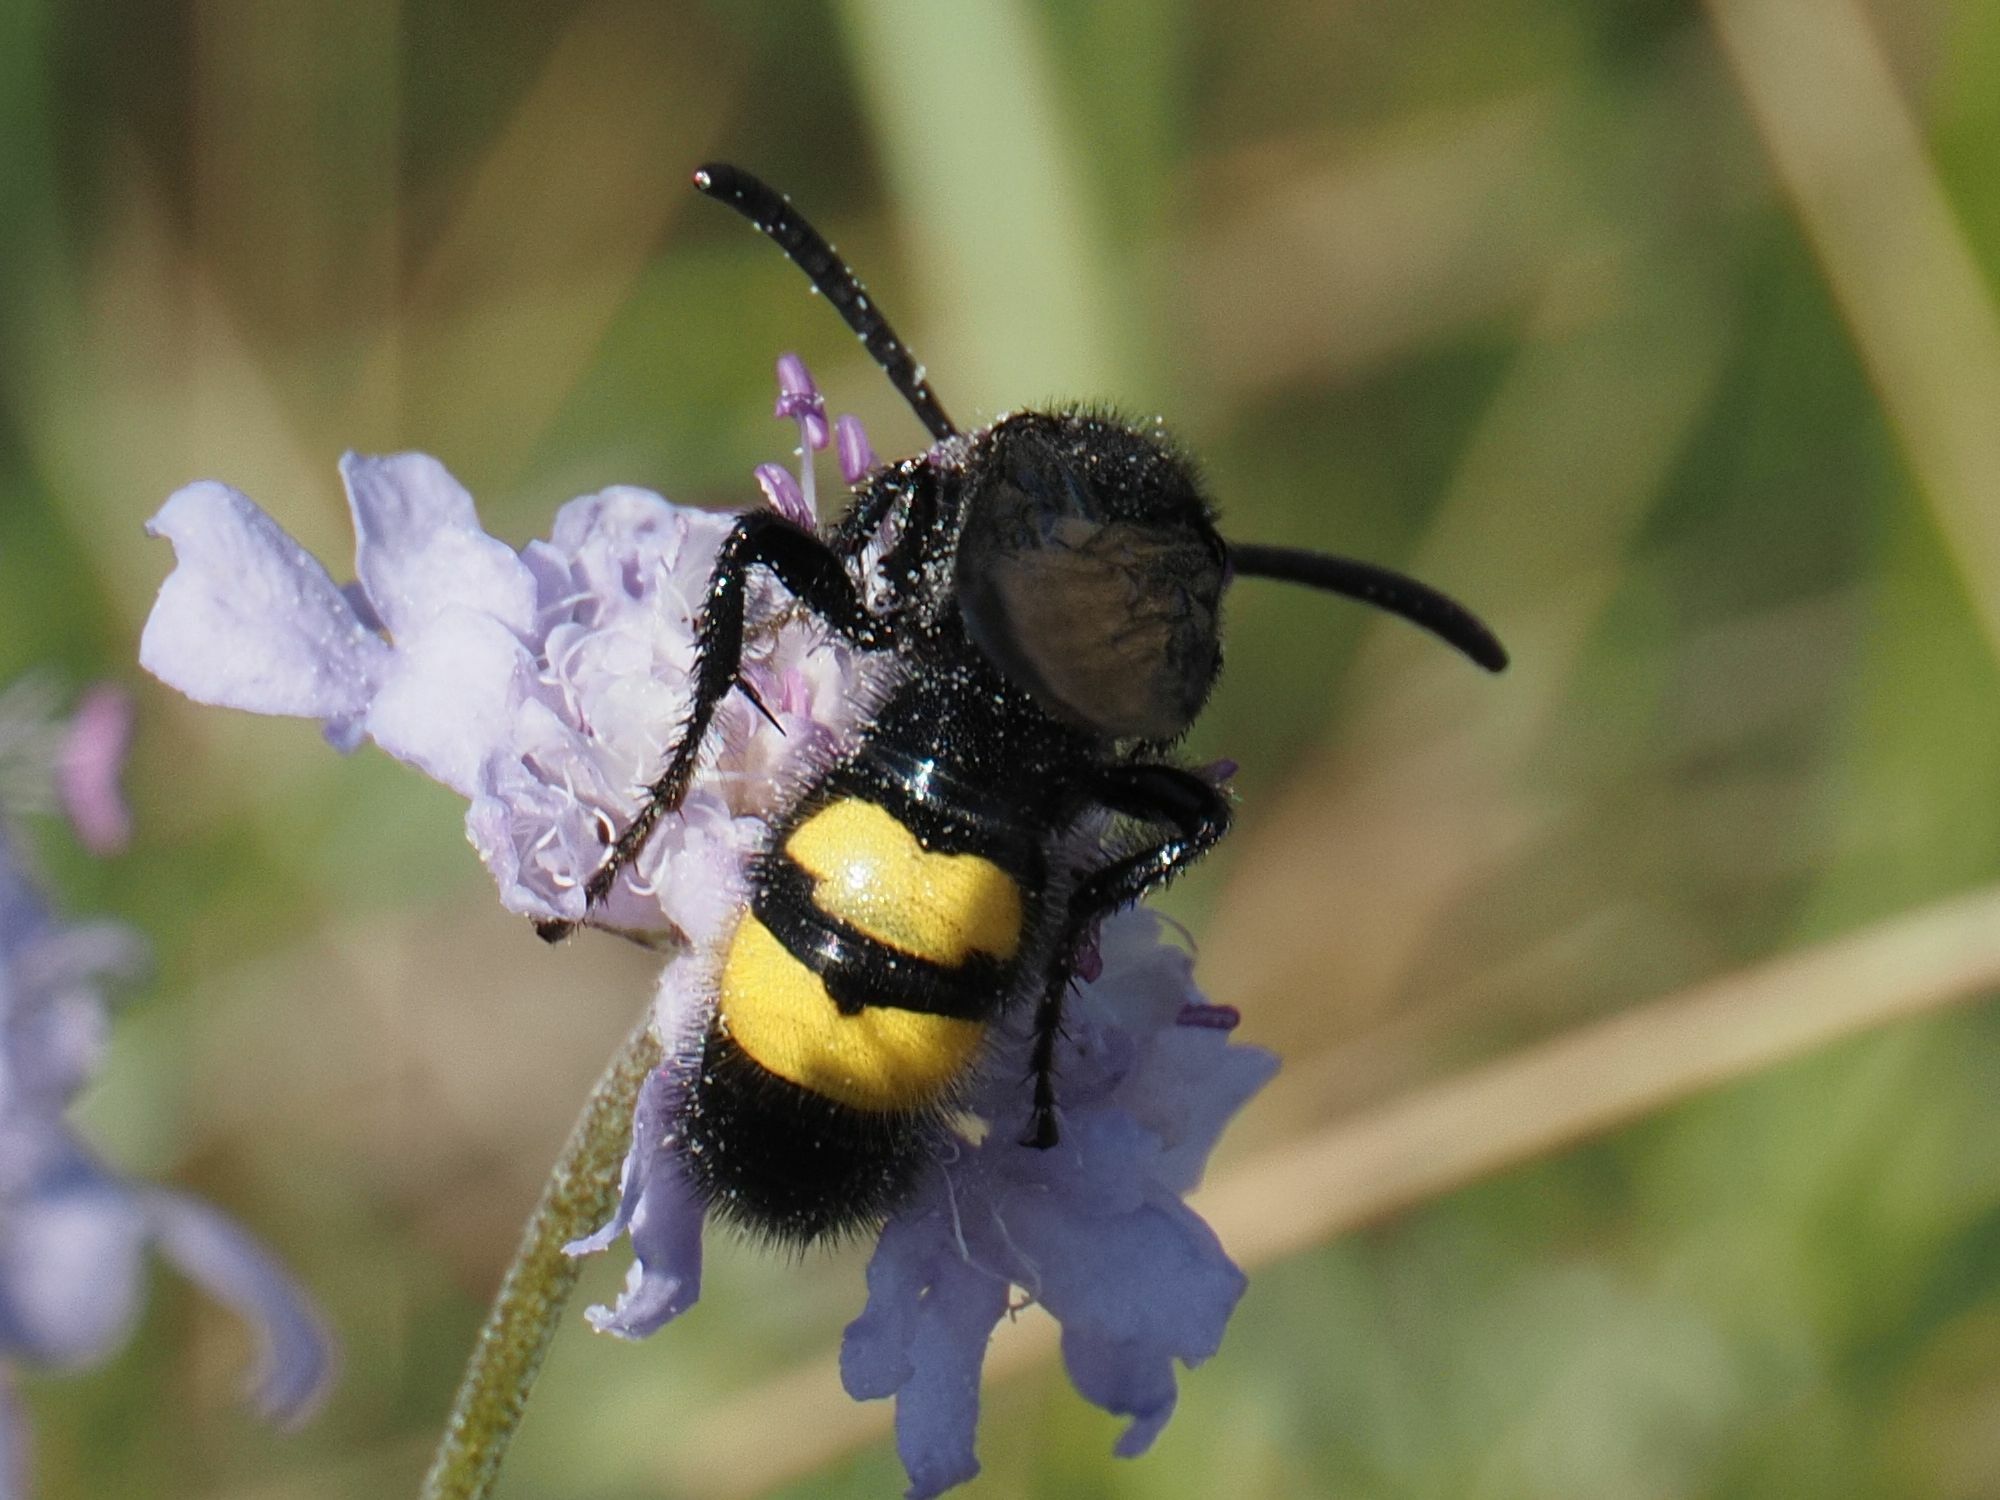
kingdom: Animalia
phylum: Arthropoda
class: Insecta
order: Hymenoptera
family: Scoliidae
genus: Scolia
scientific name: Scolia hirta
